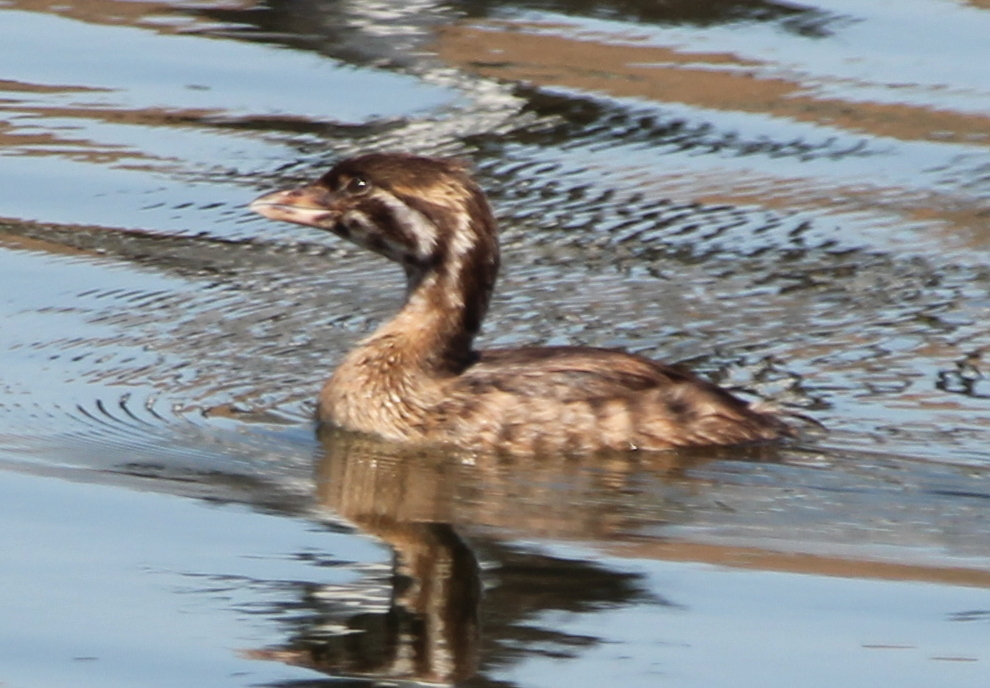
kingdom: Animalia
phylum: Chordata
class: Aves
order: Podicipediformes
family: Podicipedidae
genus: Podilymbus
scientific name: Podilymbus podiceps
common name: Pied-billed grebe
